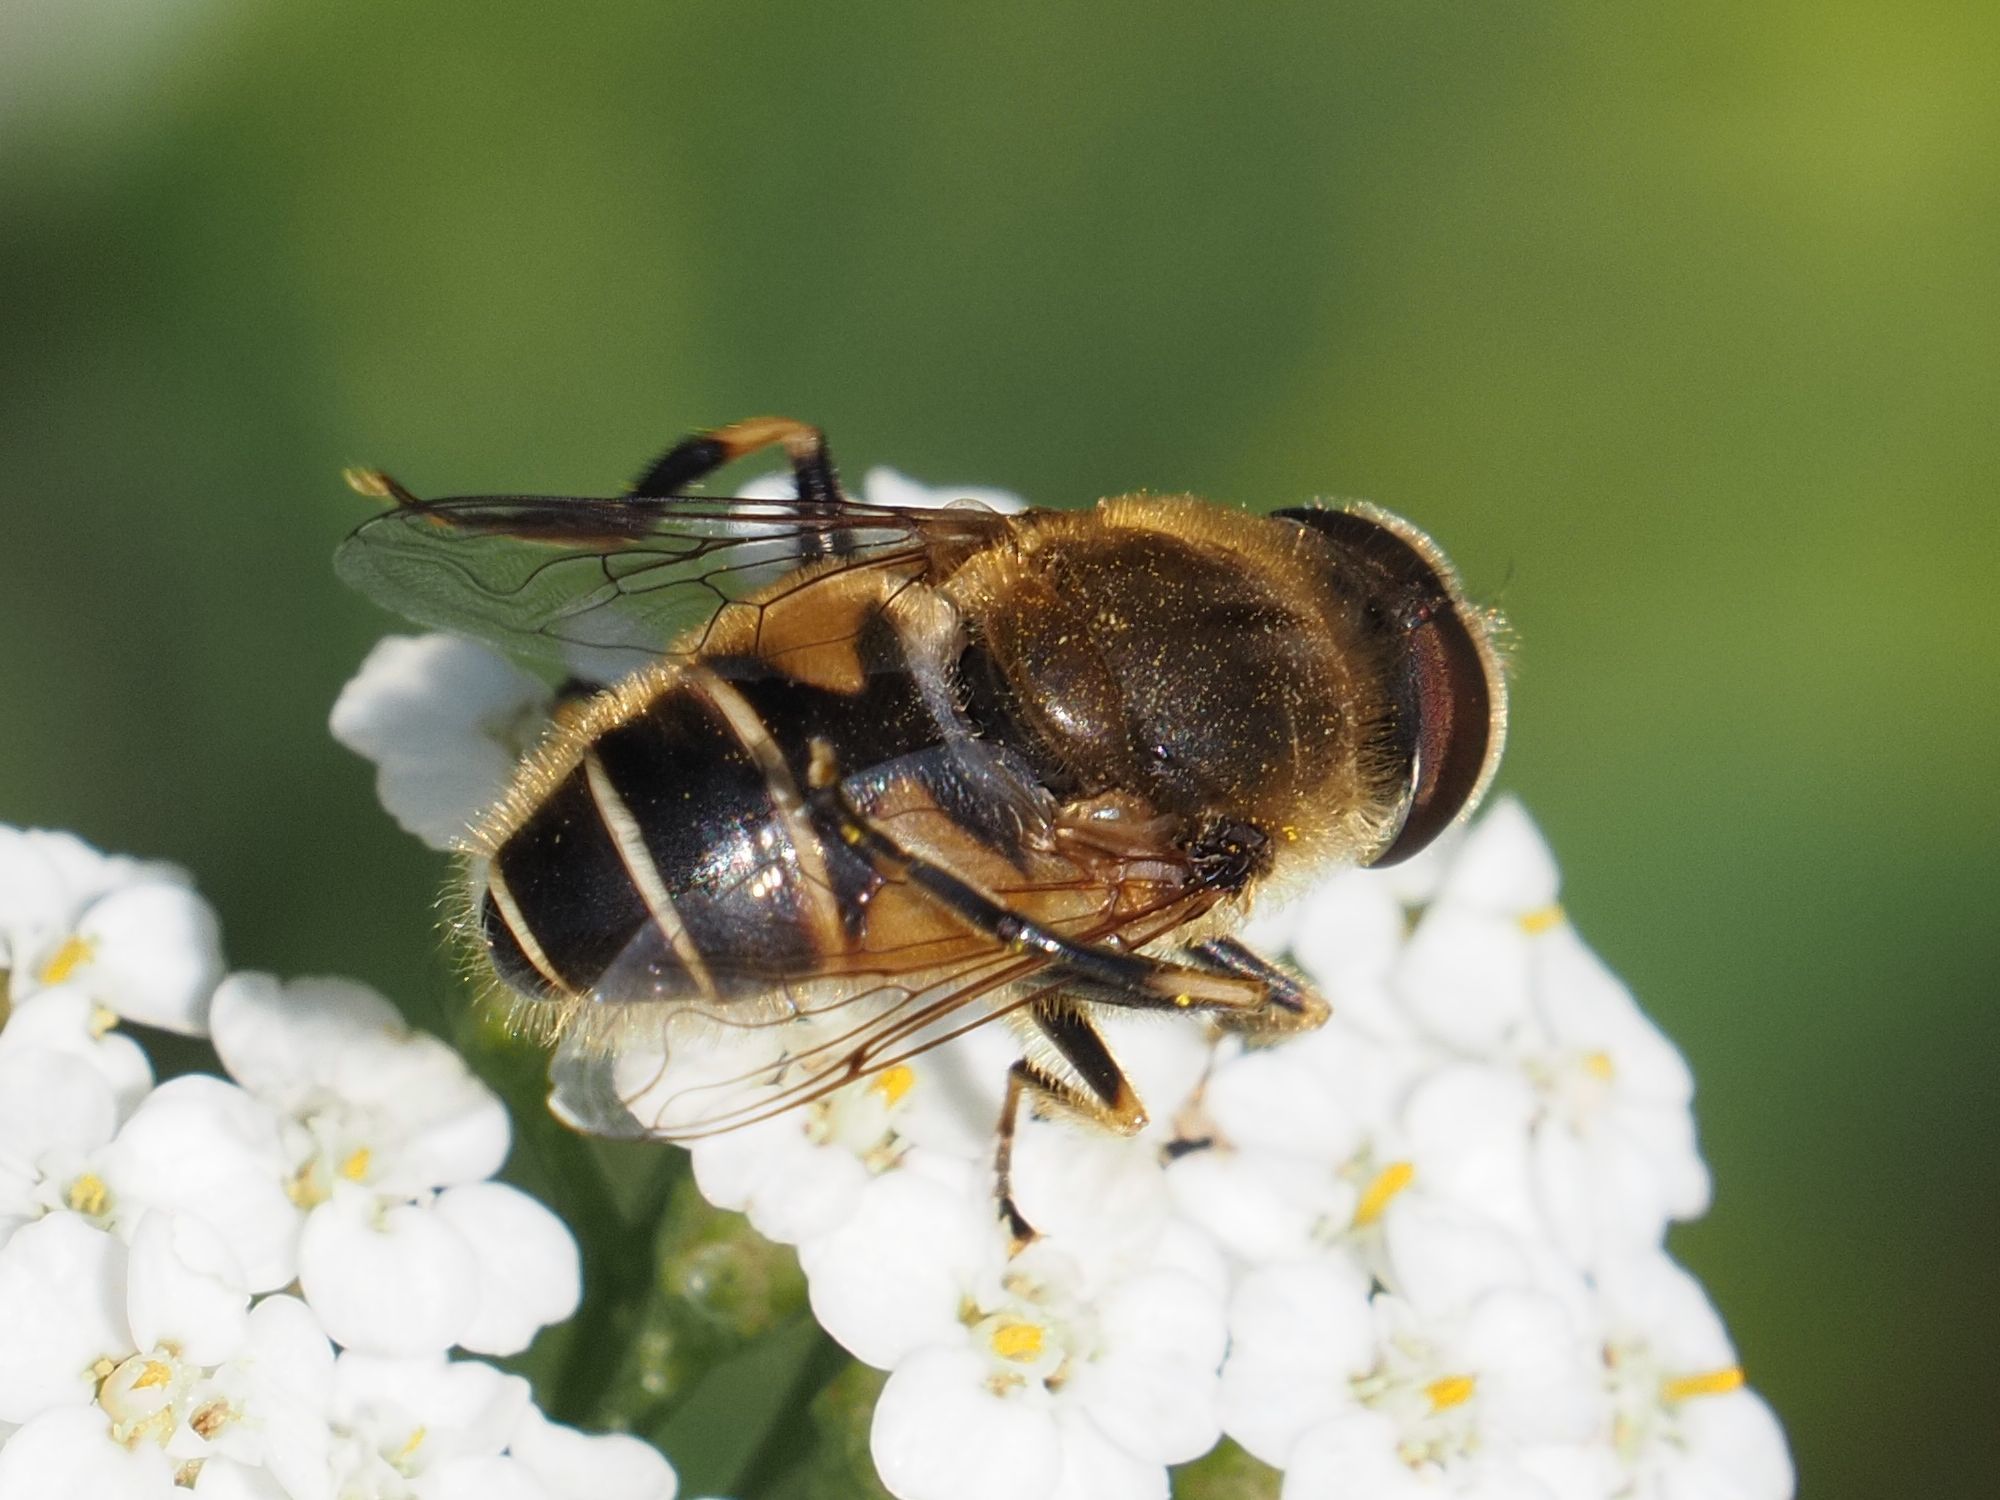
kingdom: Animalia
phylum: Arthropoda
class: Insecta
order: Diptera
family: Syrphidae
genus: Eristalis
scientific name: Eristalis nemorum
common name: Orange-spined drone fly
